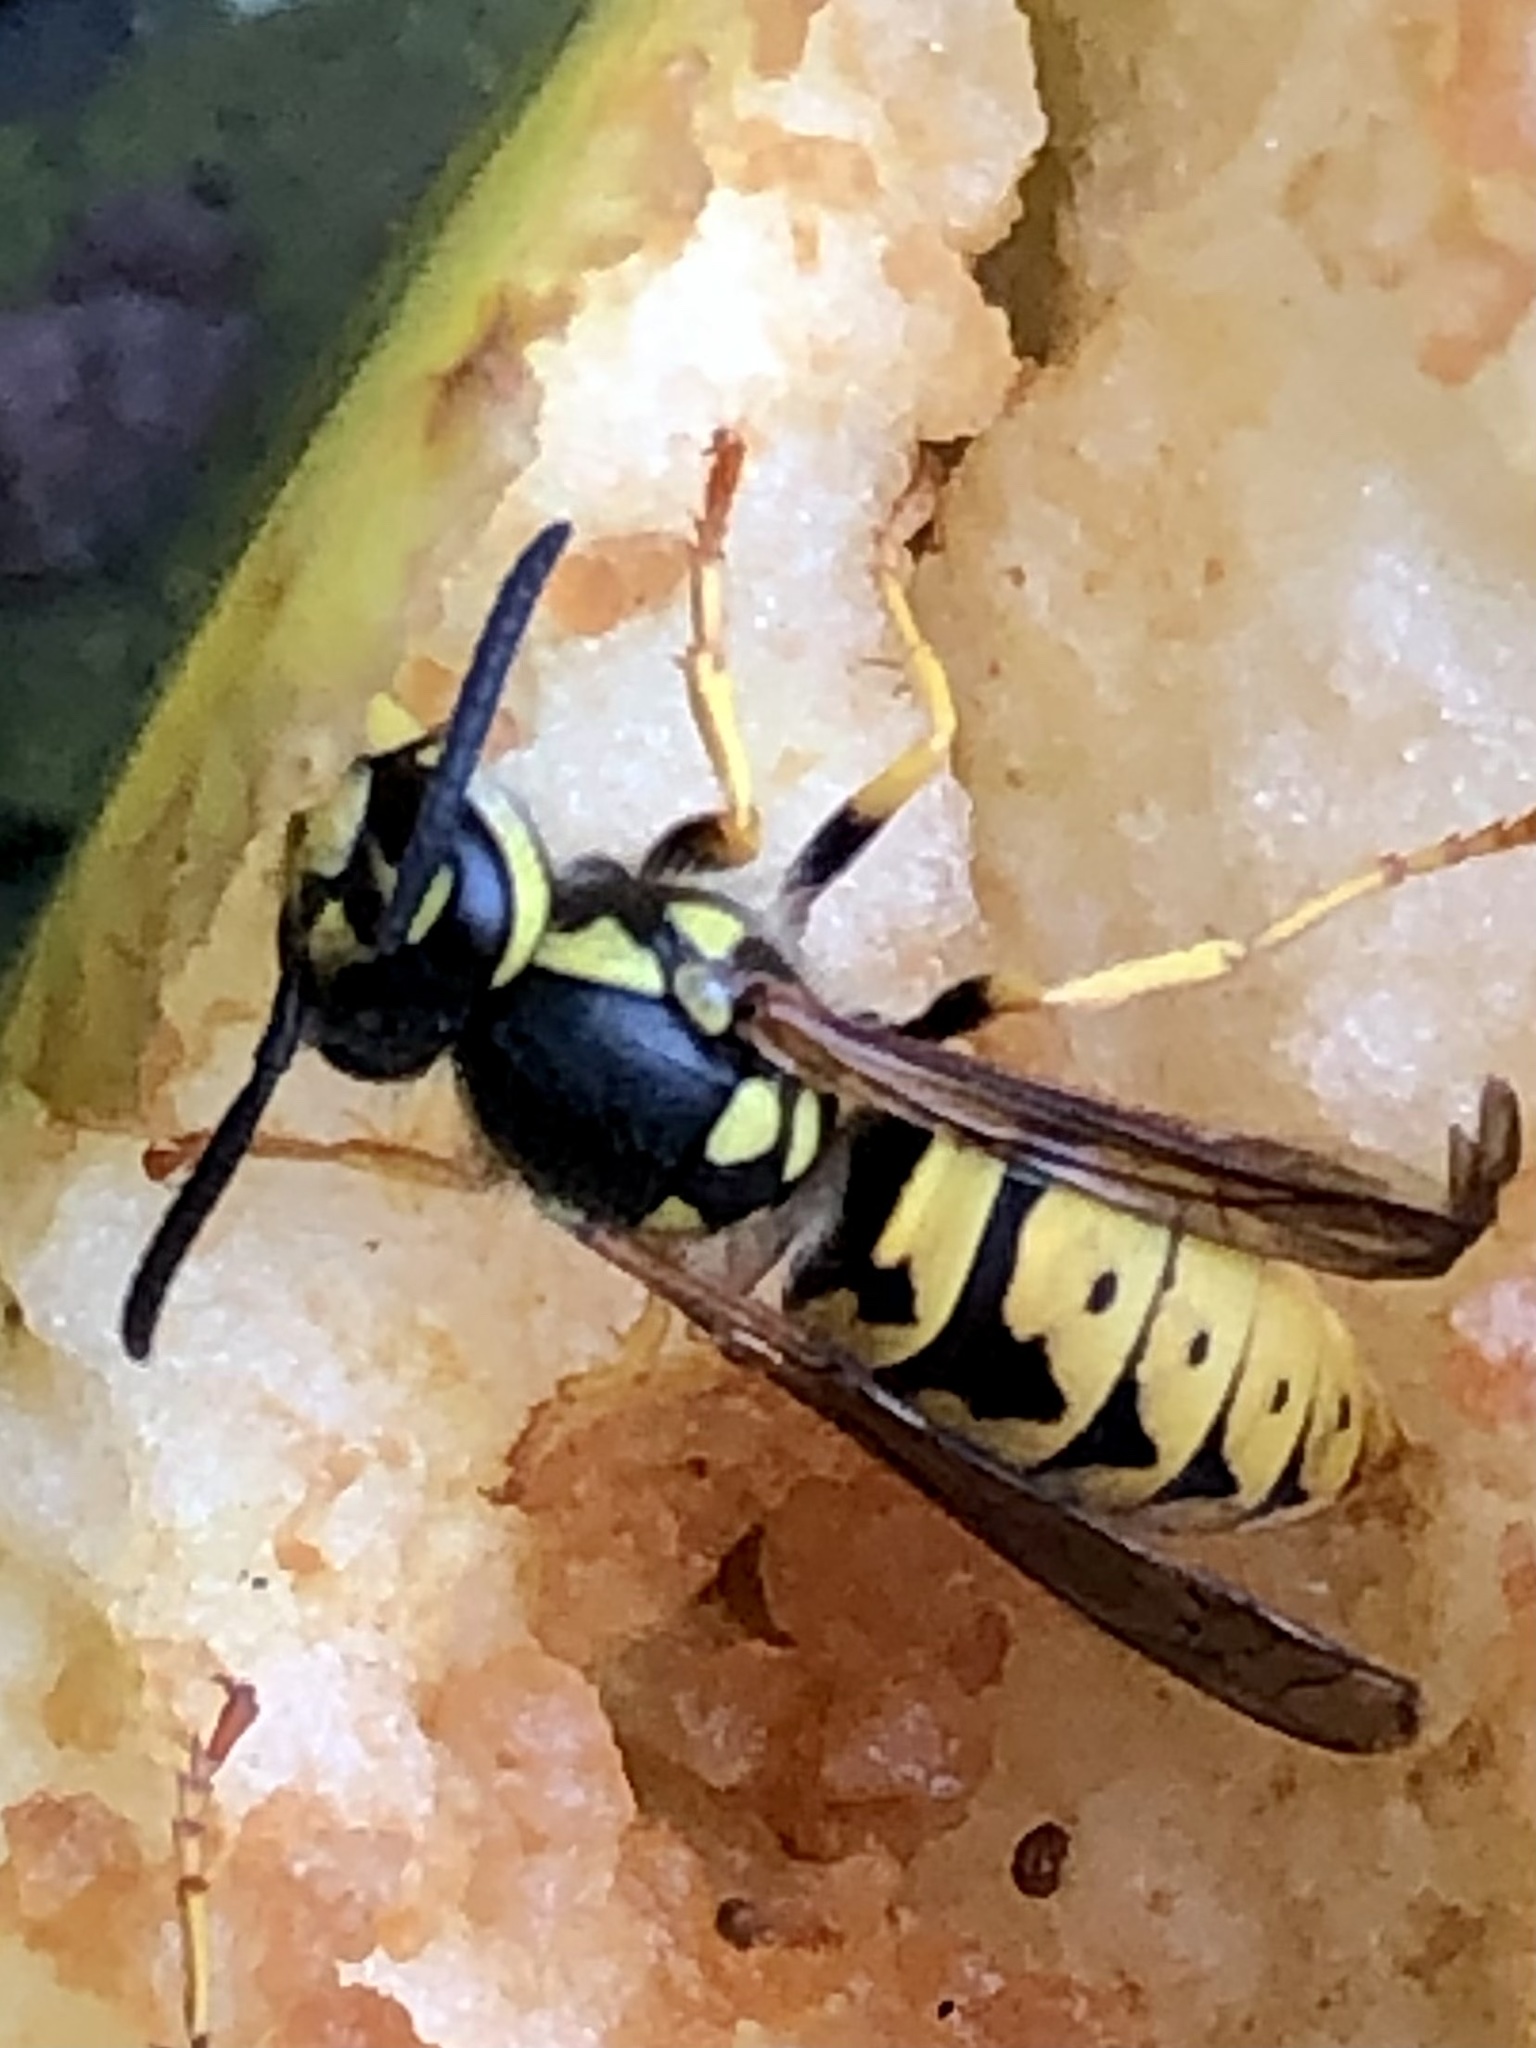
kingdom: Animalia
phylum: Arthropoda
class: Insecta
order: Hymenoptera
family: Vespidae
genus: Vespula
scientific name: Vespula germanica
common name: German wasp
